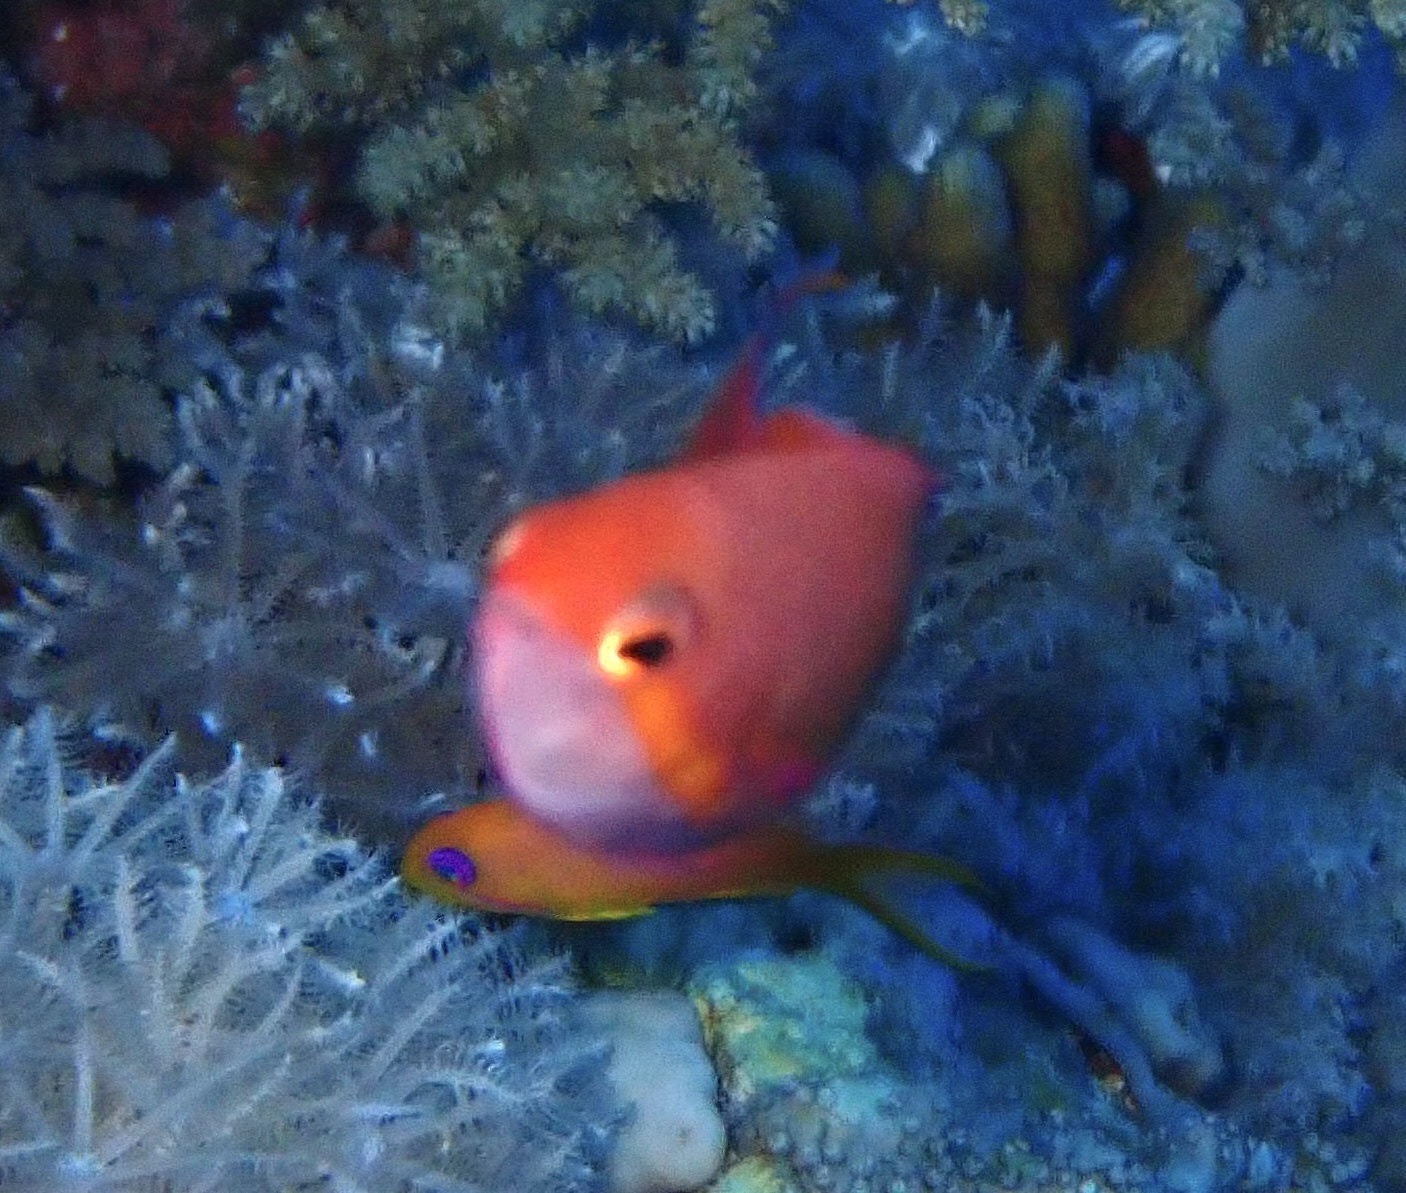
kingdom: Animalia
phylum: Chordata
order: Perciformes
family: Serranidae
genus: Pseudanthias
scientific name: Pseudanthias squamipinnis
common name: Scalefin anthias
